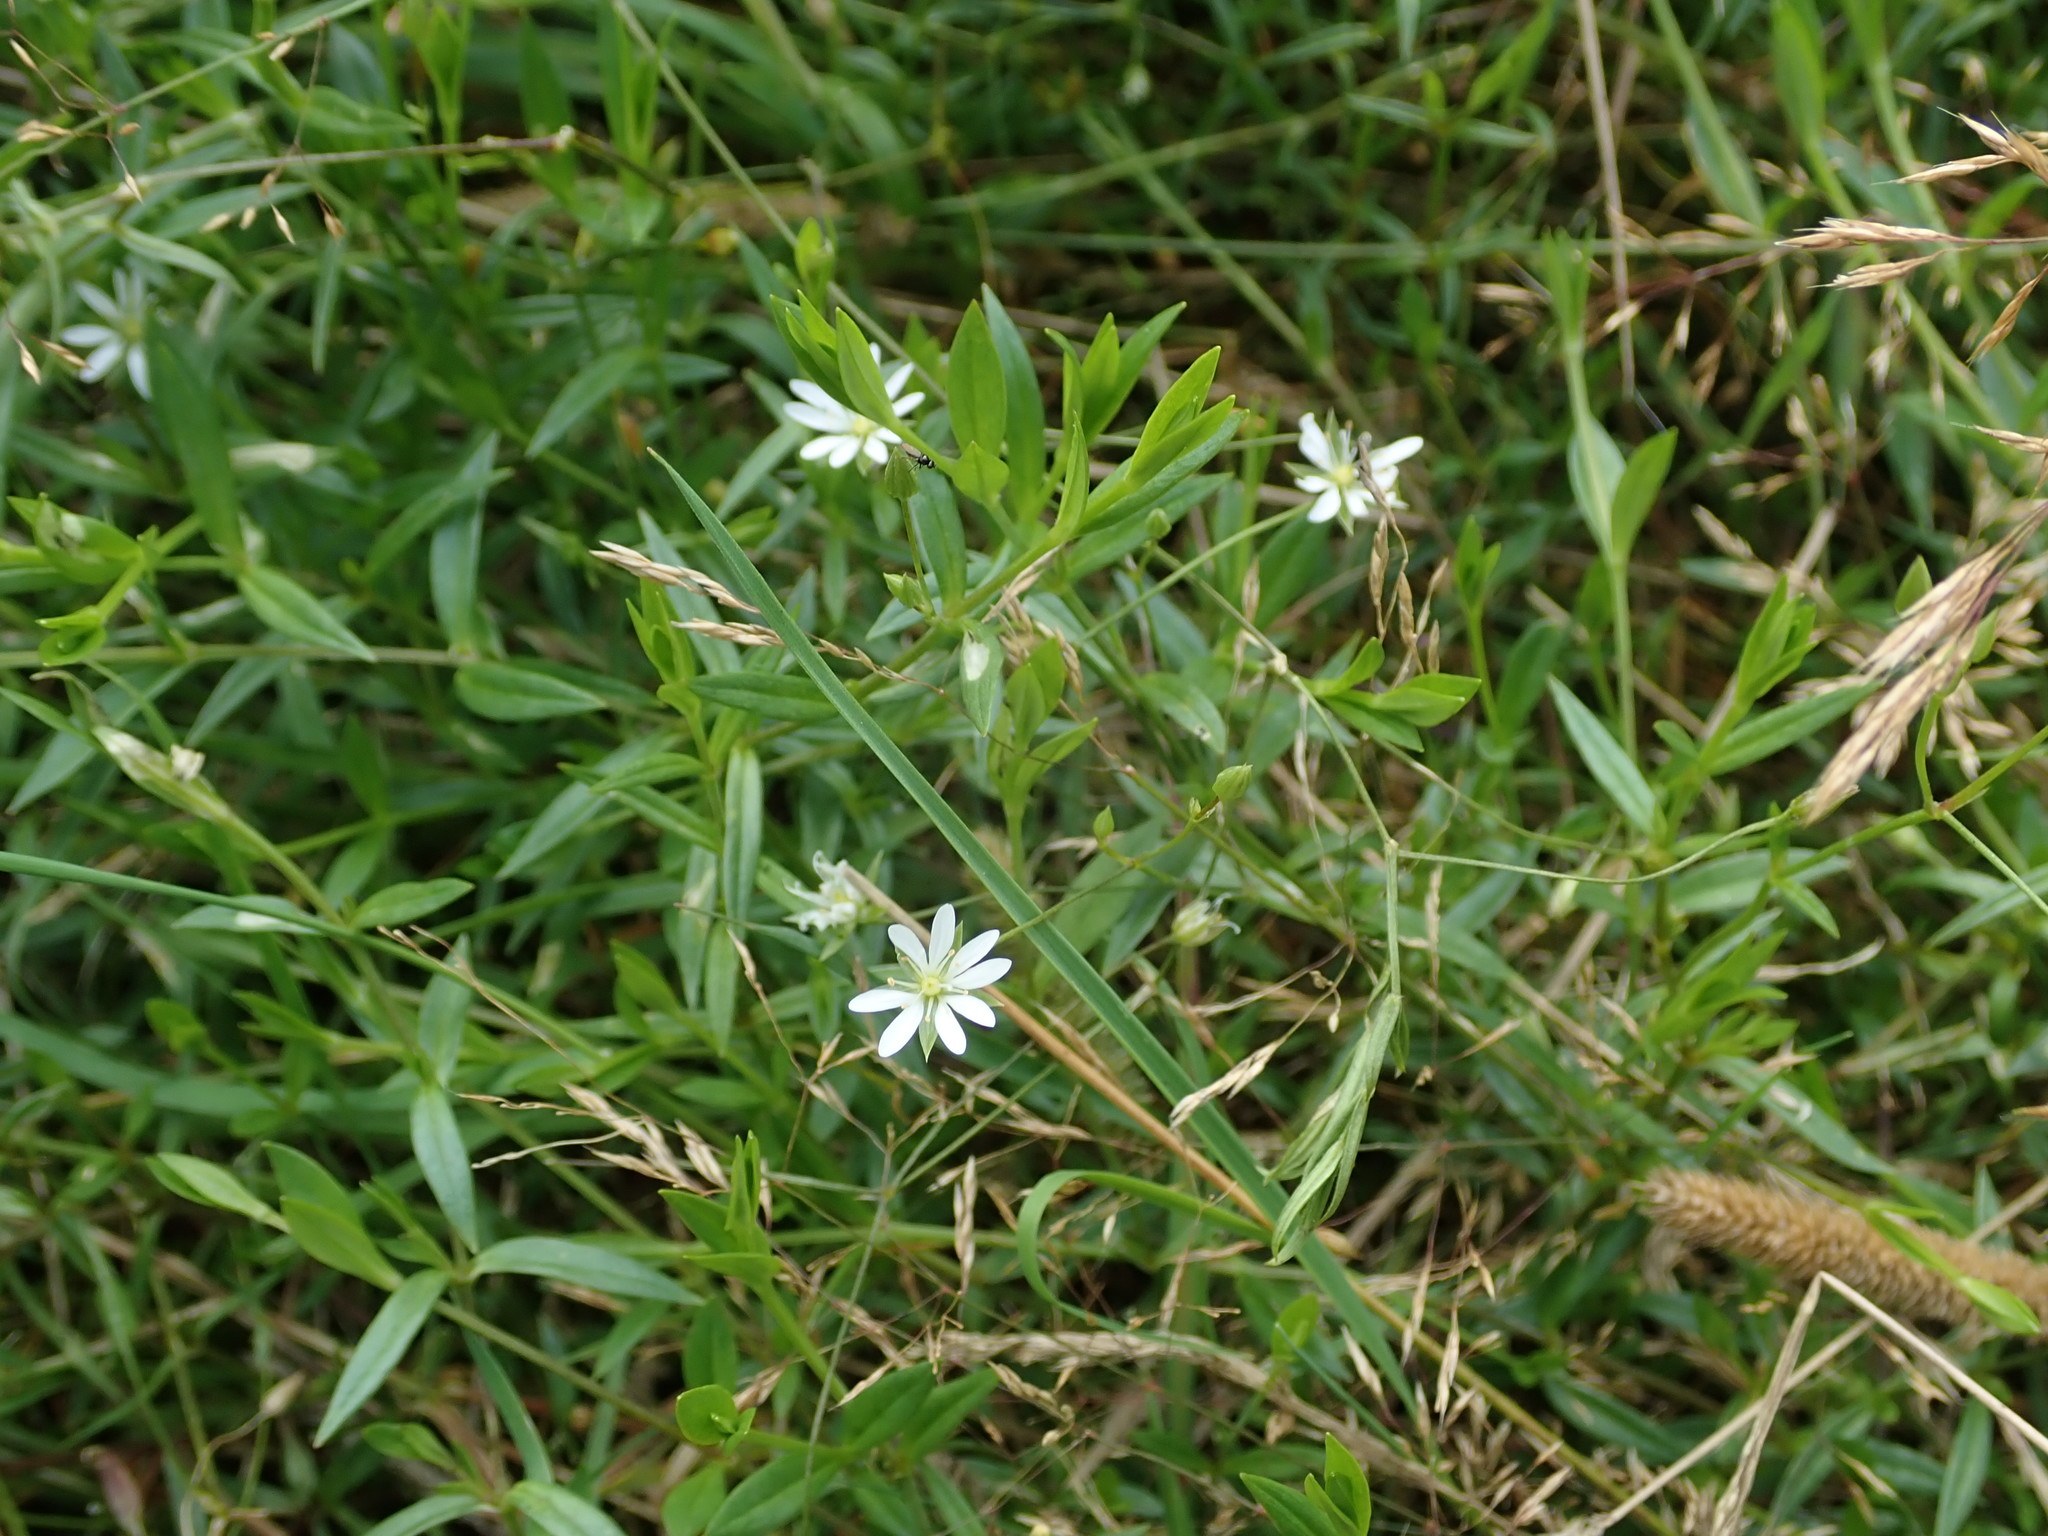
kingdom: Plantae
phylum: Tracheophyta
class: Magnoliopsida
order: Caryophyllales
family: Caryophyllaceae
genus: Stellaria
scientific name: Stellaria graminea
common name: Grass-like starwort
